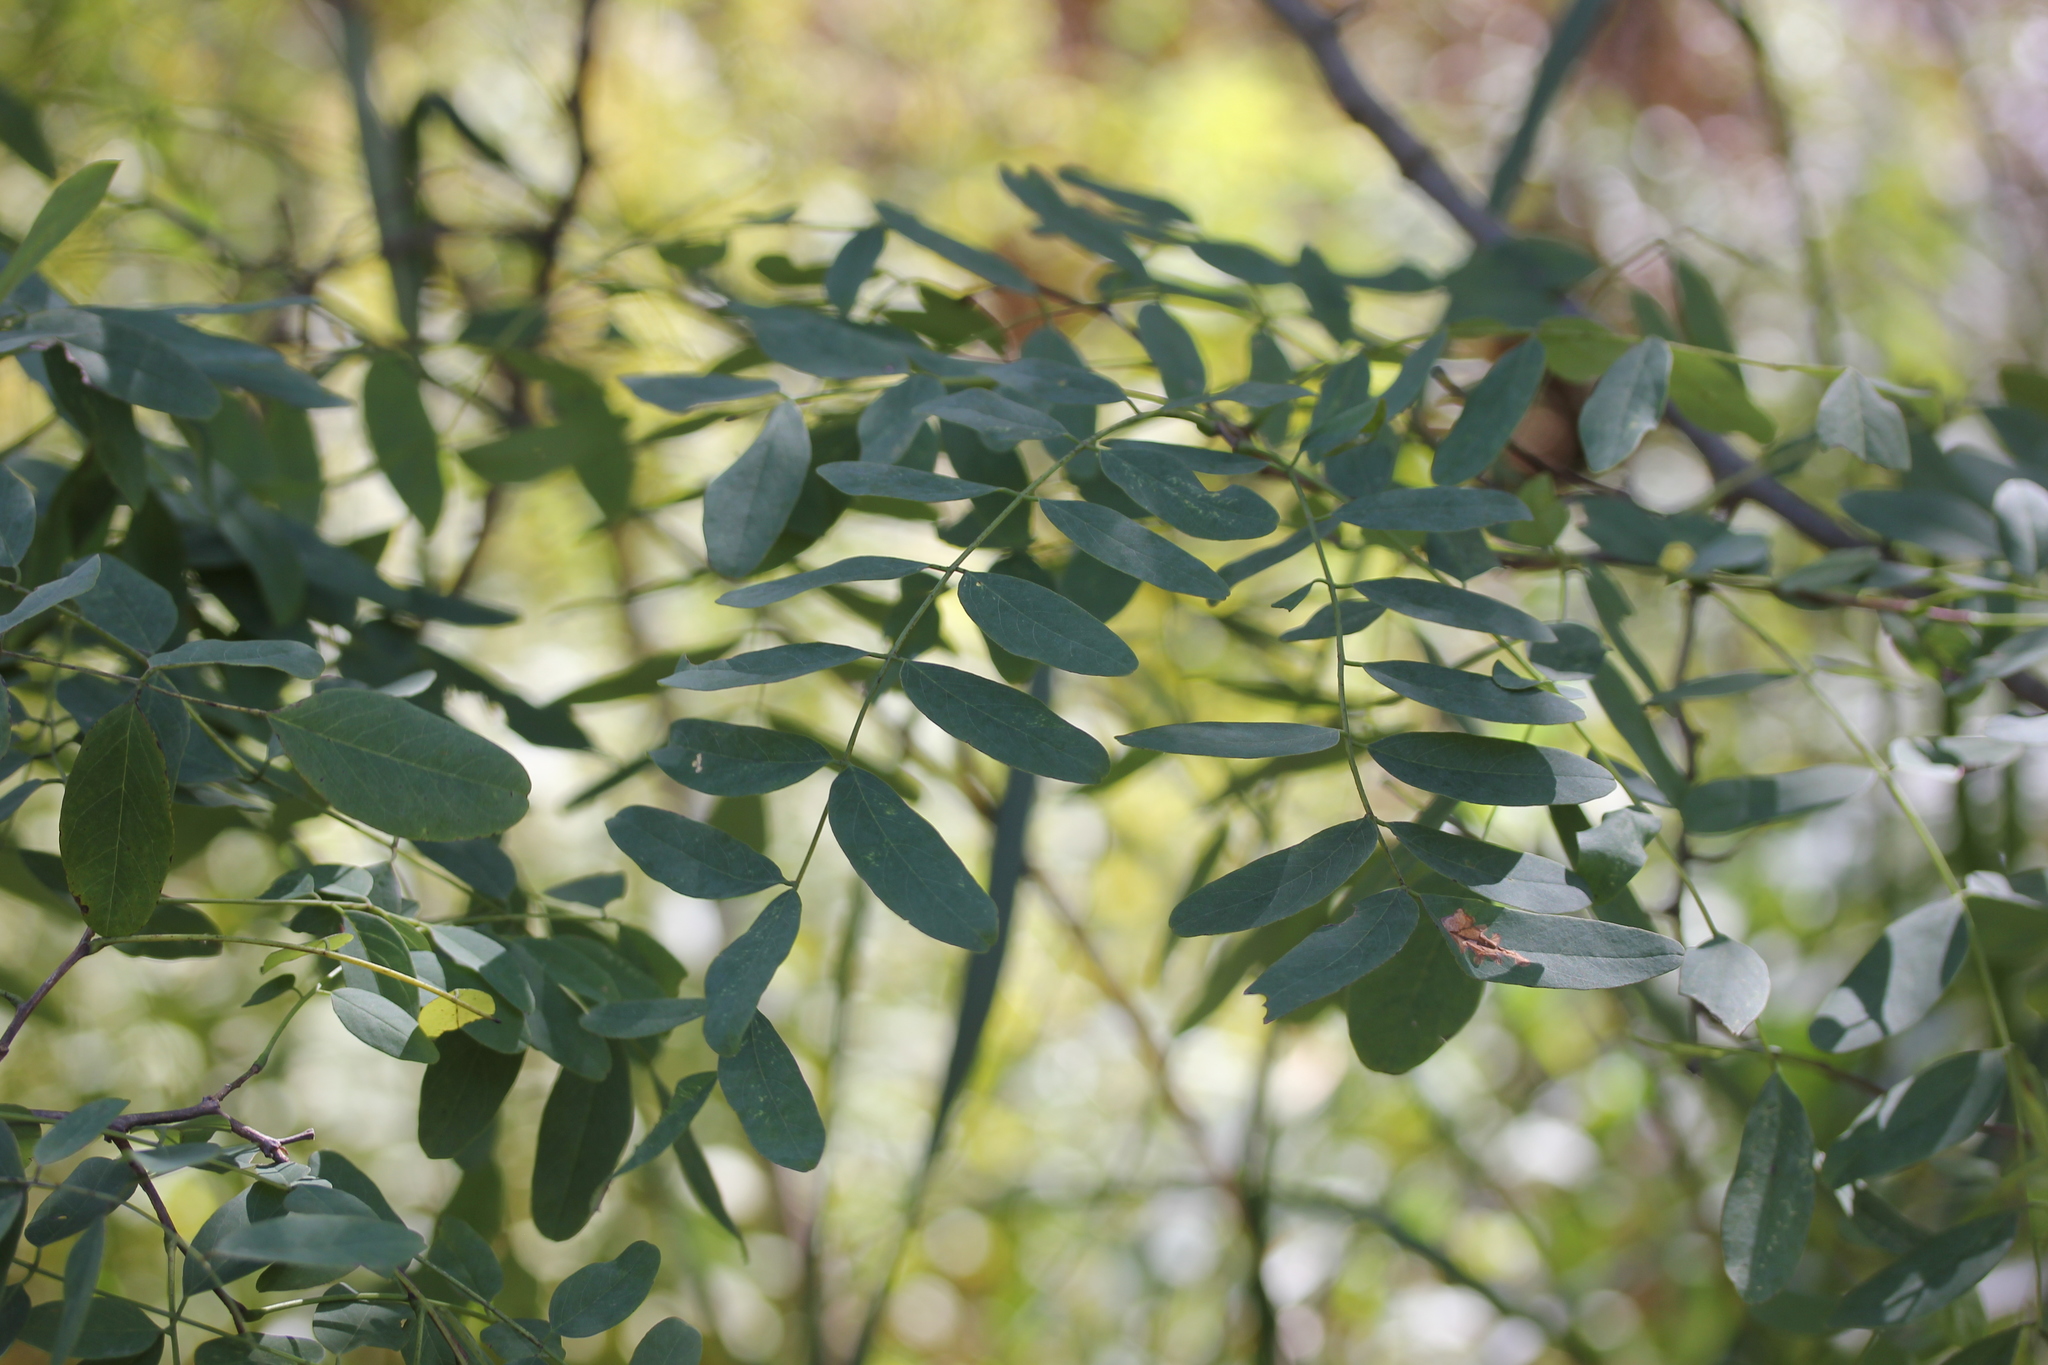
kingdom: Plantae
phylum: Tracheophyta
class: Magnoliopsida
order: Fabales
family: Fabaceae
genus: Robinia
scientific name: Robinia pseudoacacia
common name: Black locust
